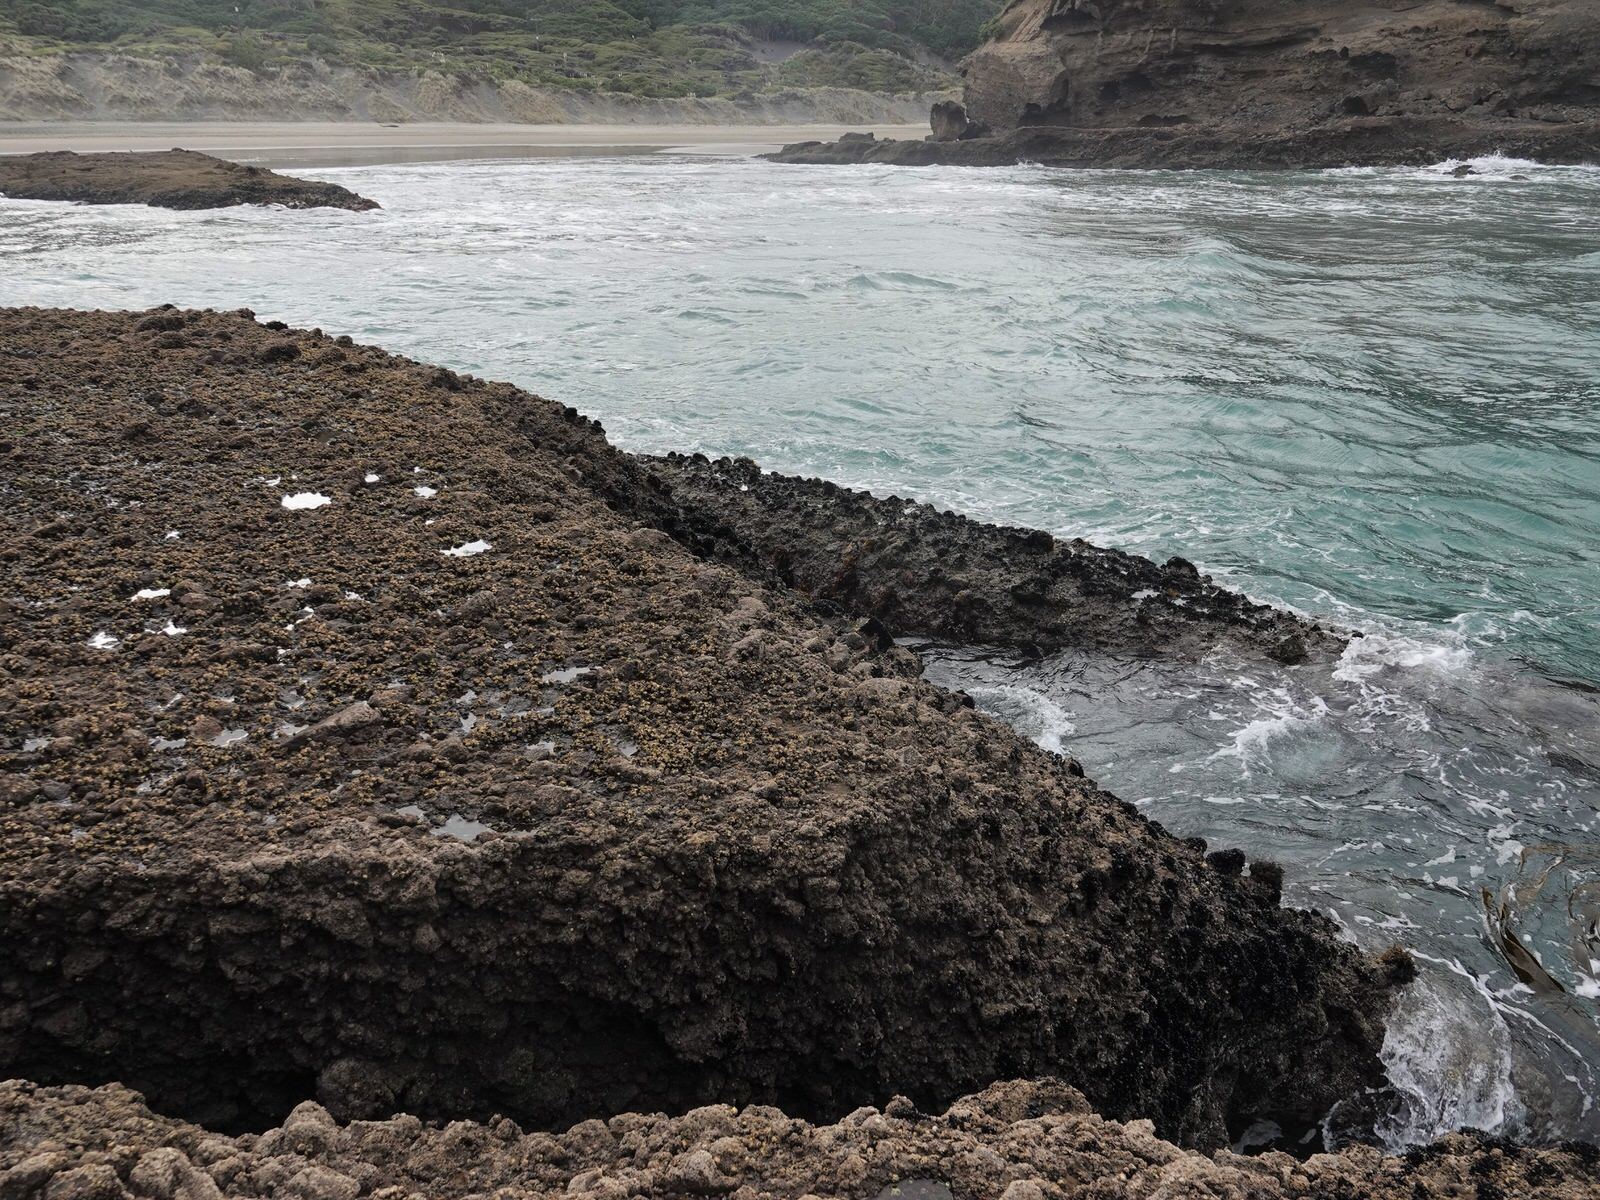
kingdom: Animalia
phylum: Cnidaria
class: Anthozoa
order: Actiniaria
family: Actiniidae
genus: Oulactis
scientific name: Oulactis magna
